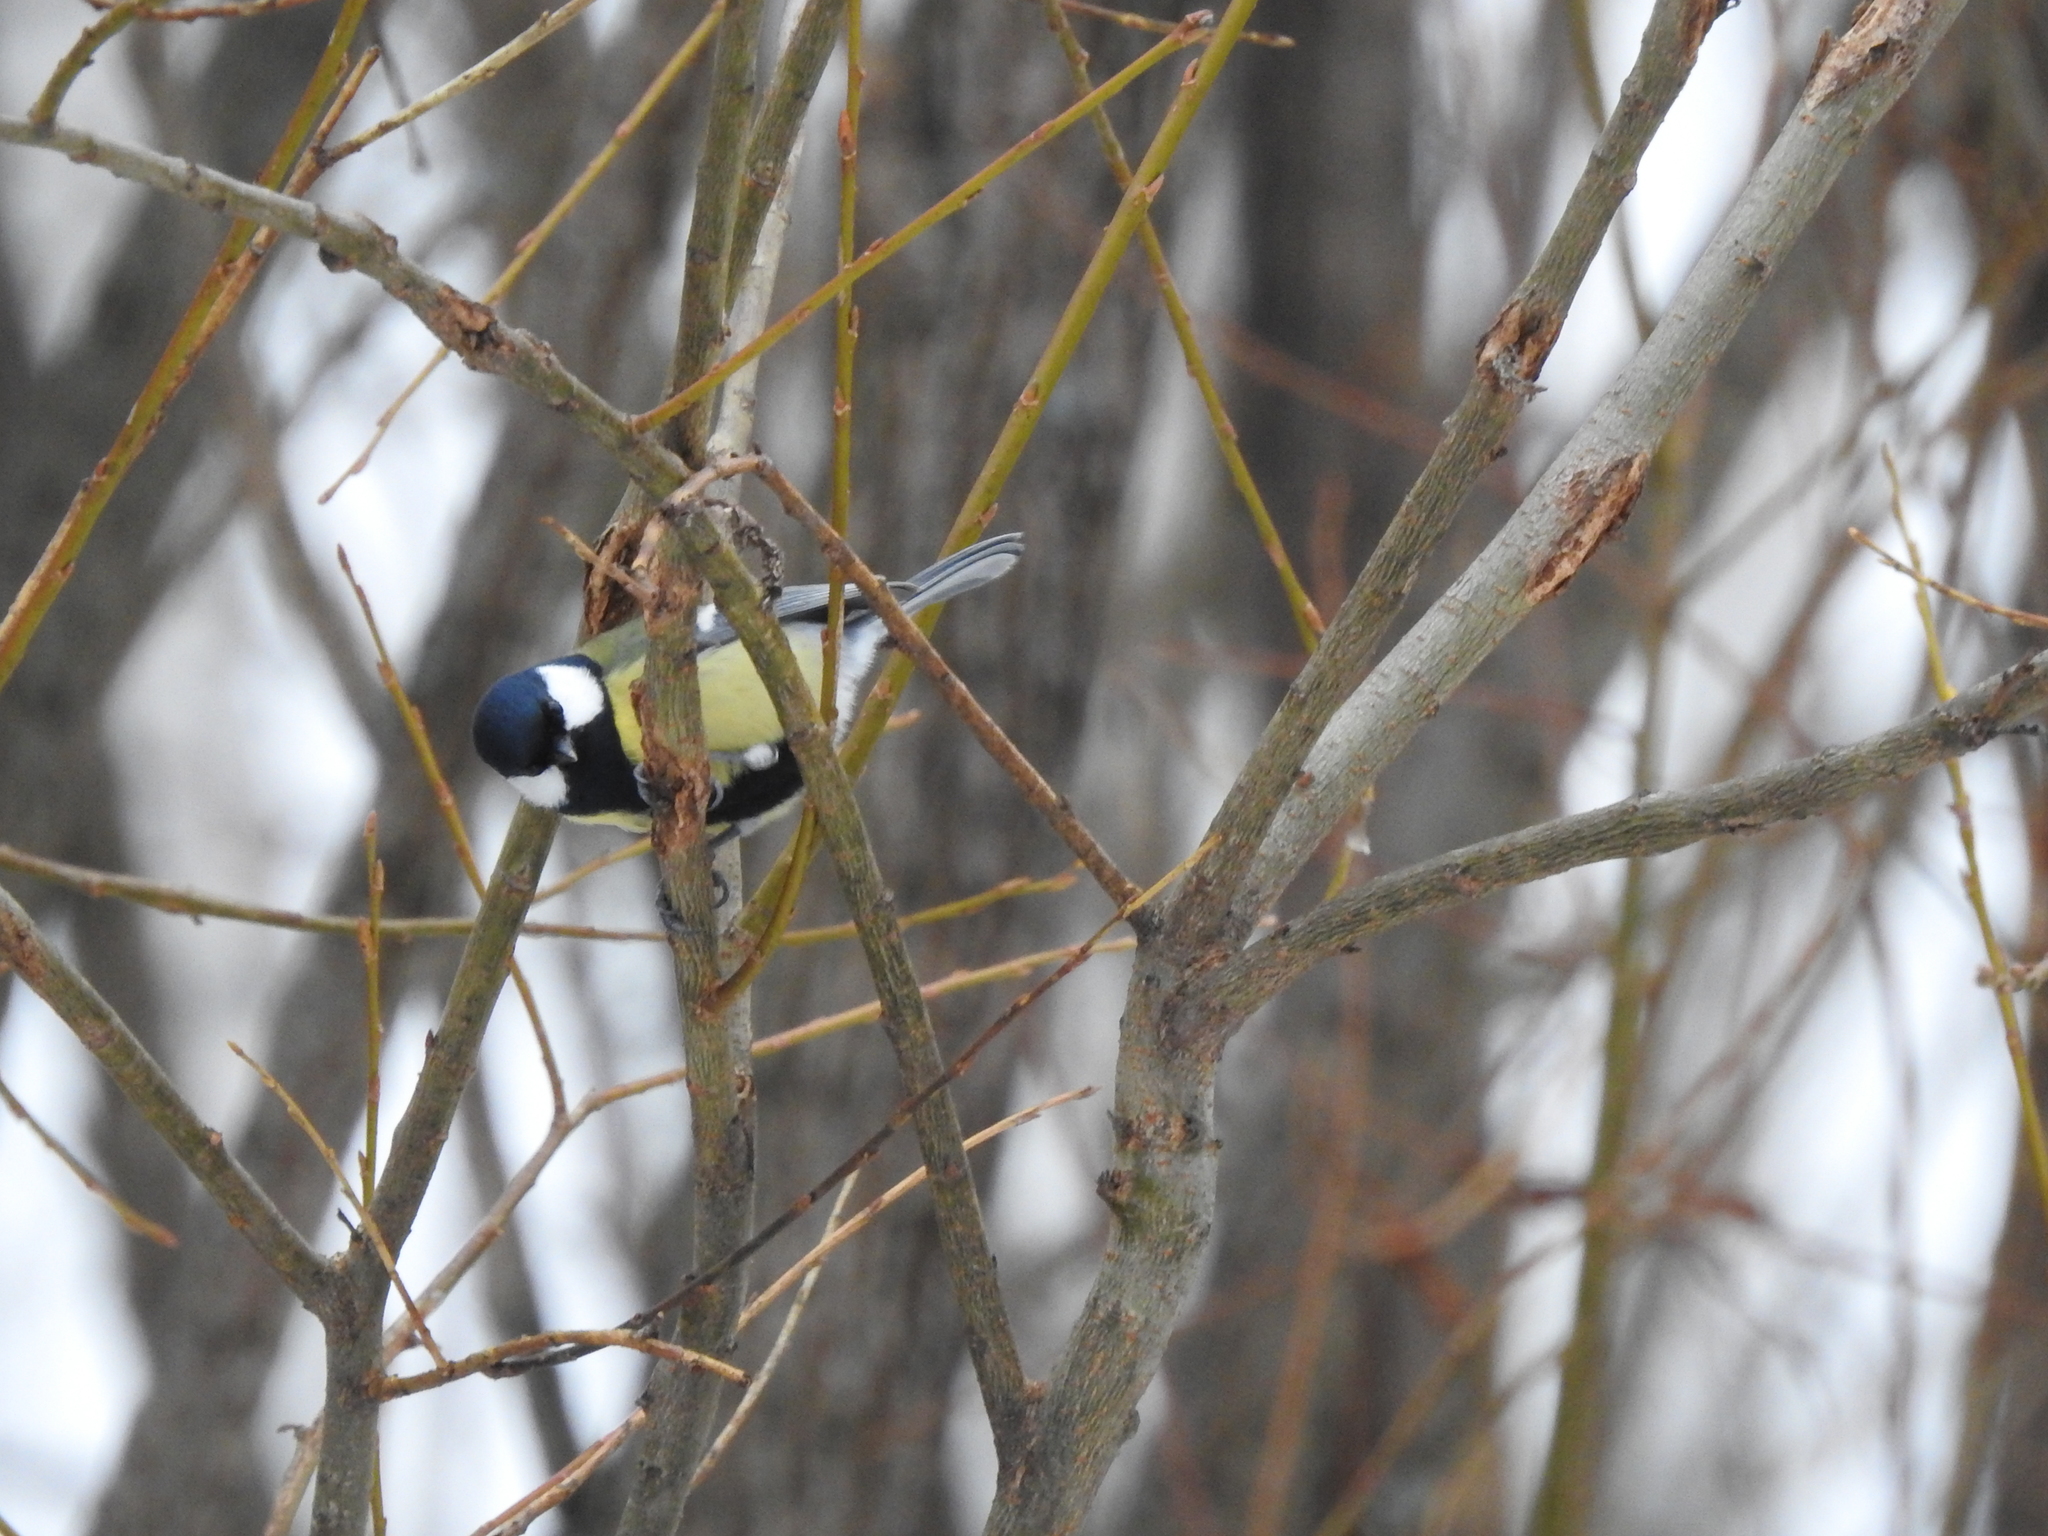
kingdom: Animalia
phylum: Chordata
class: Aves
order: Passeriformes
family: Paridae
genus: Parus
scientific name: Parus major
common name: Great tit
